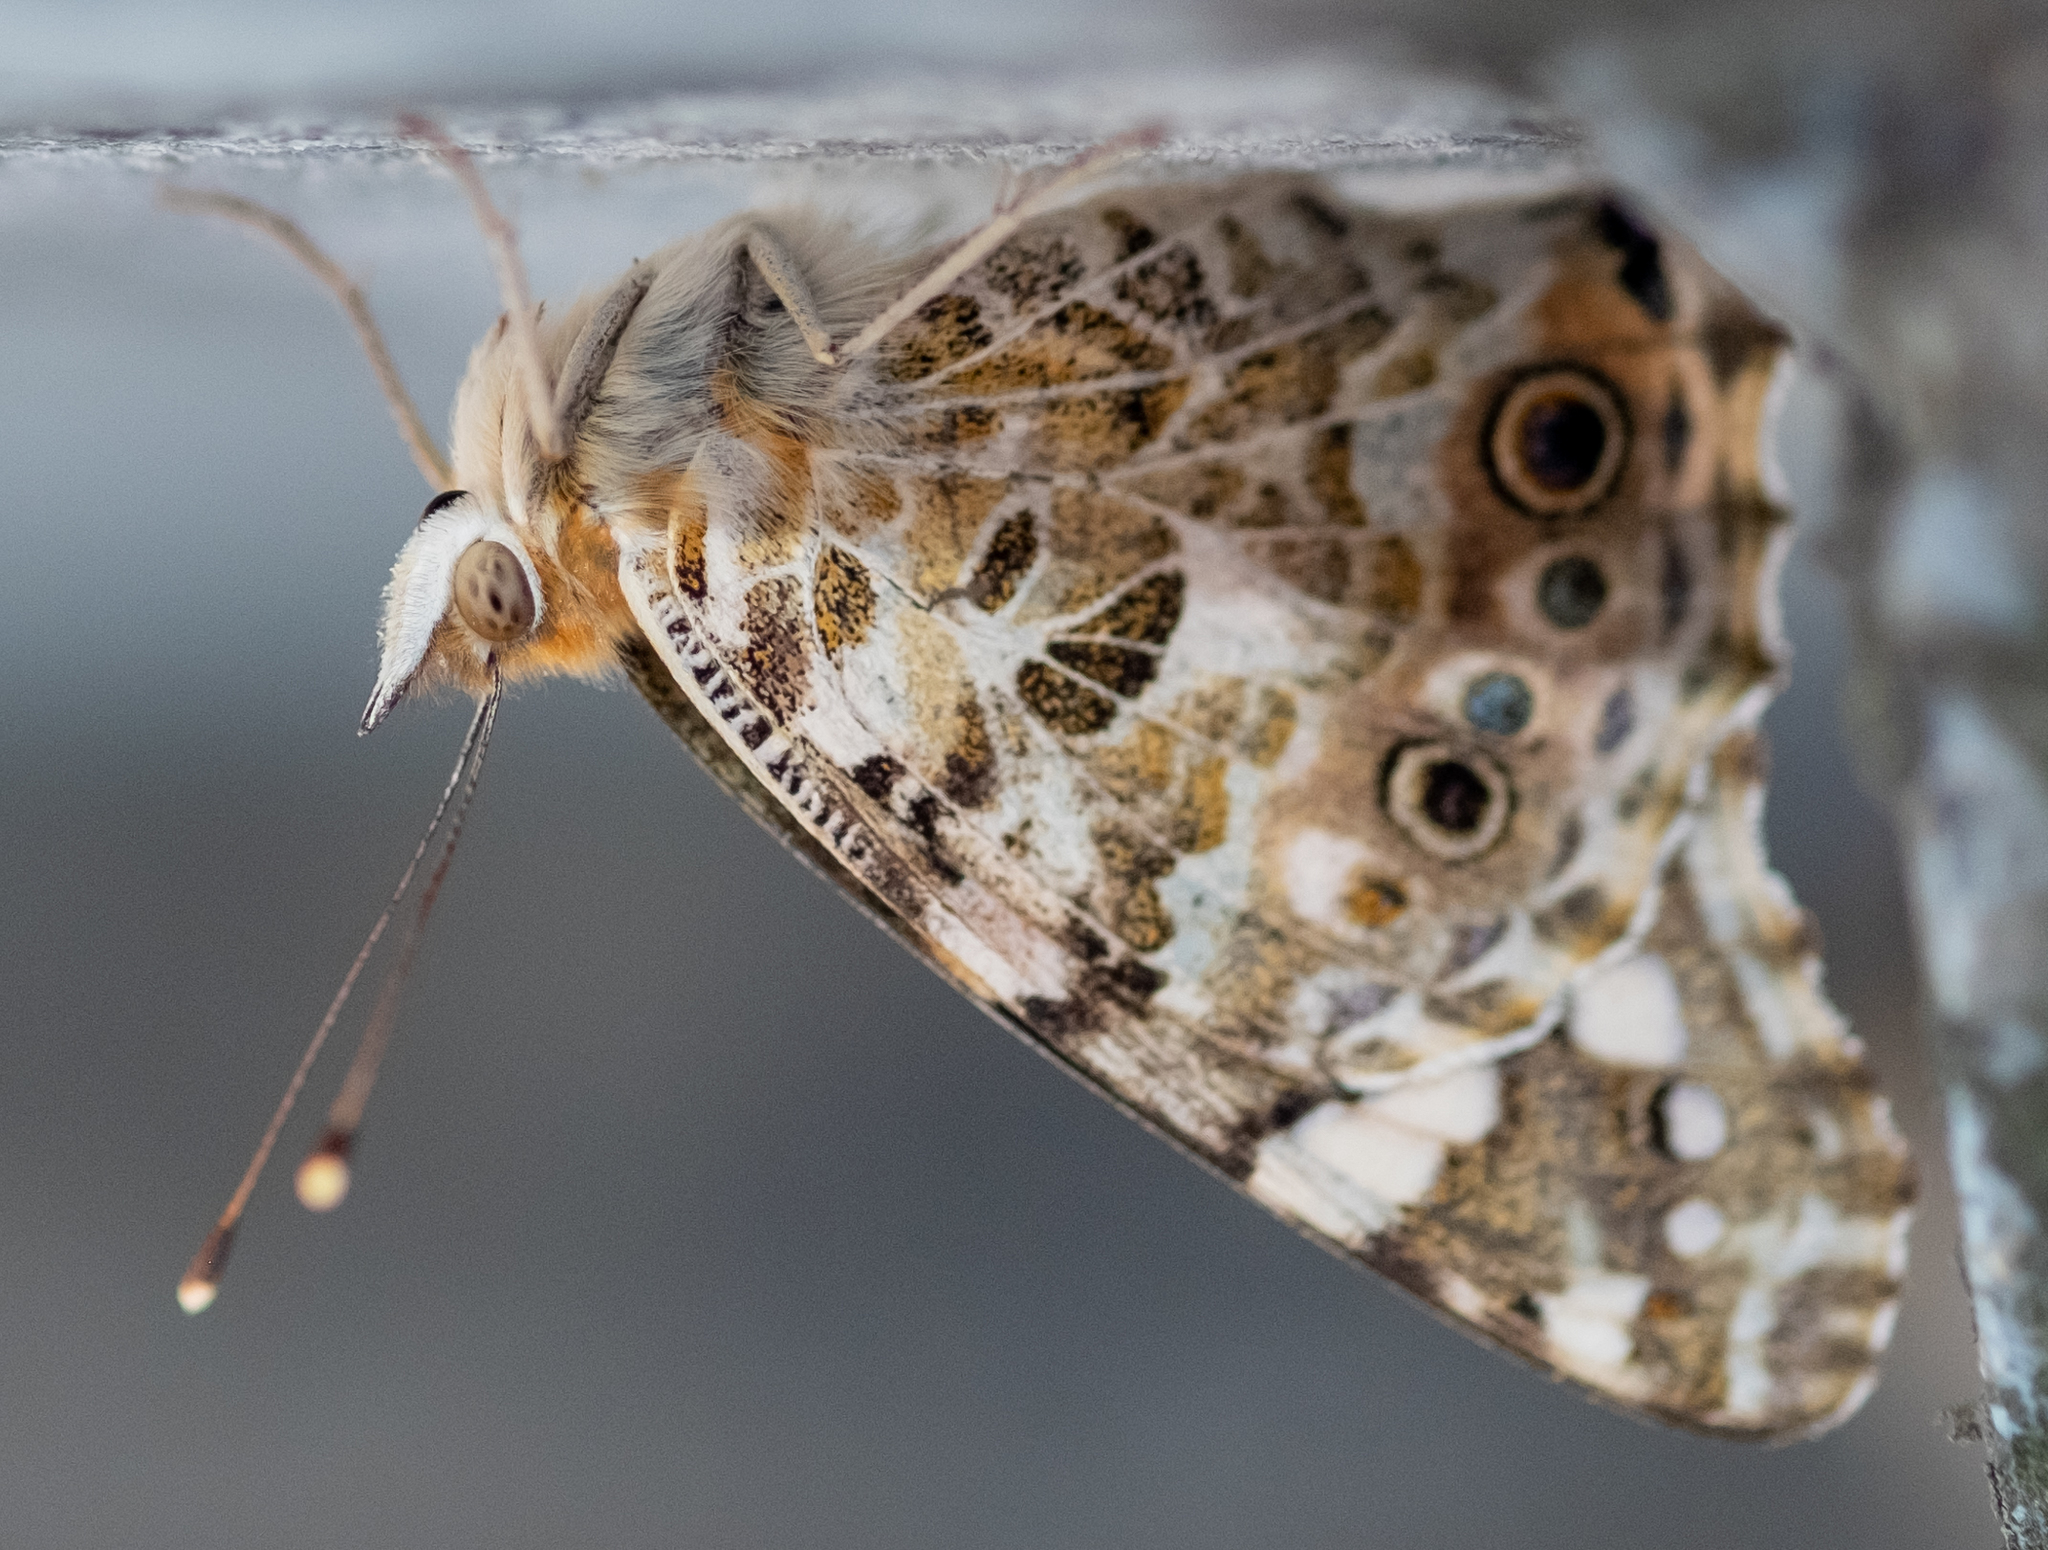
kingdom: Animalia
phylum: Arthropoda
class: Insecta
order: Lepidoptera
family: Nymphalidae
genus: Vanessa
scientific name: Vanessa cardui
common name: Painted lady
